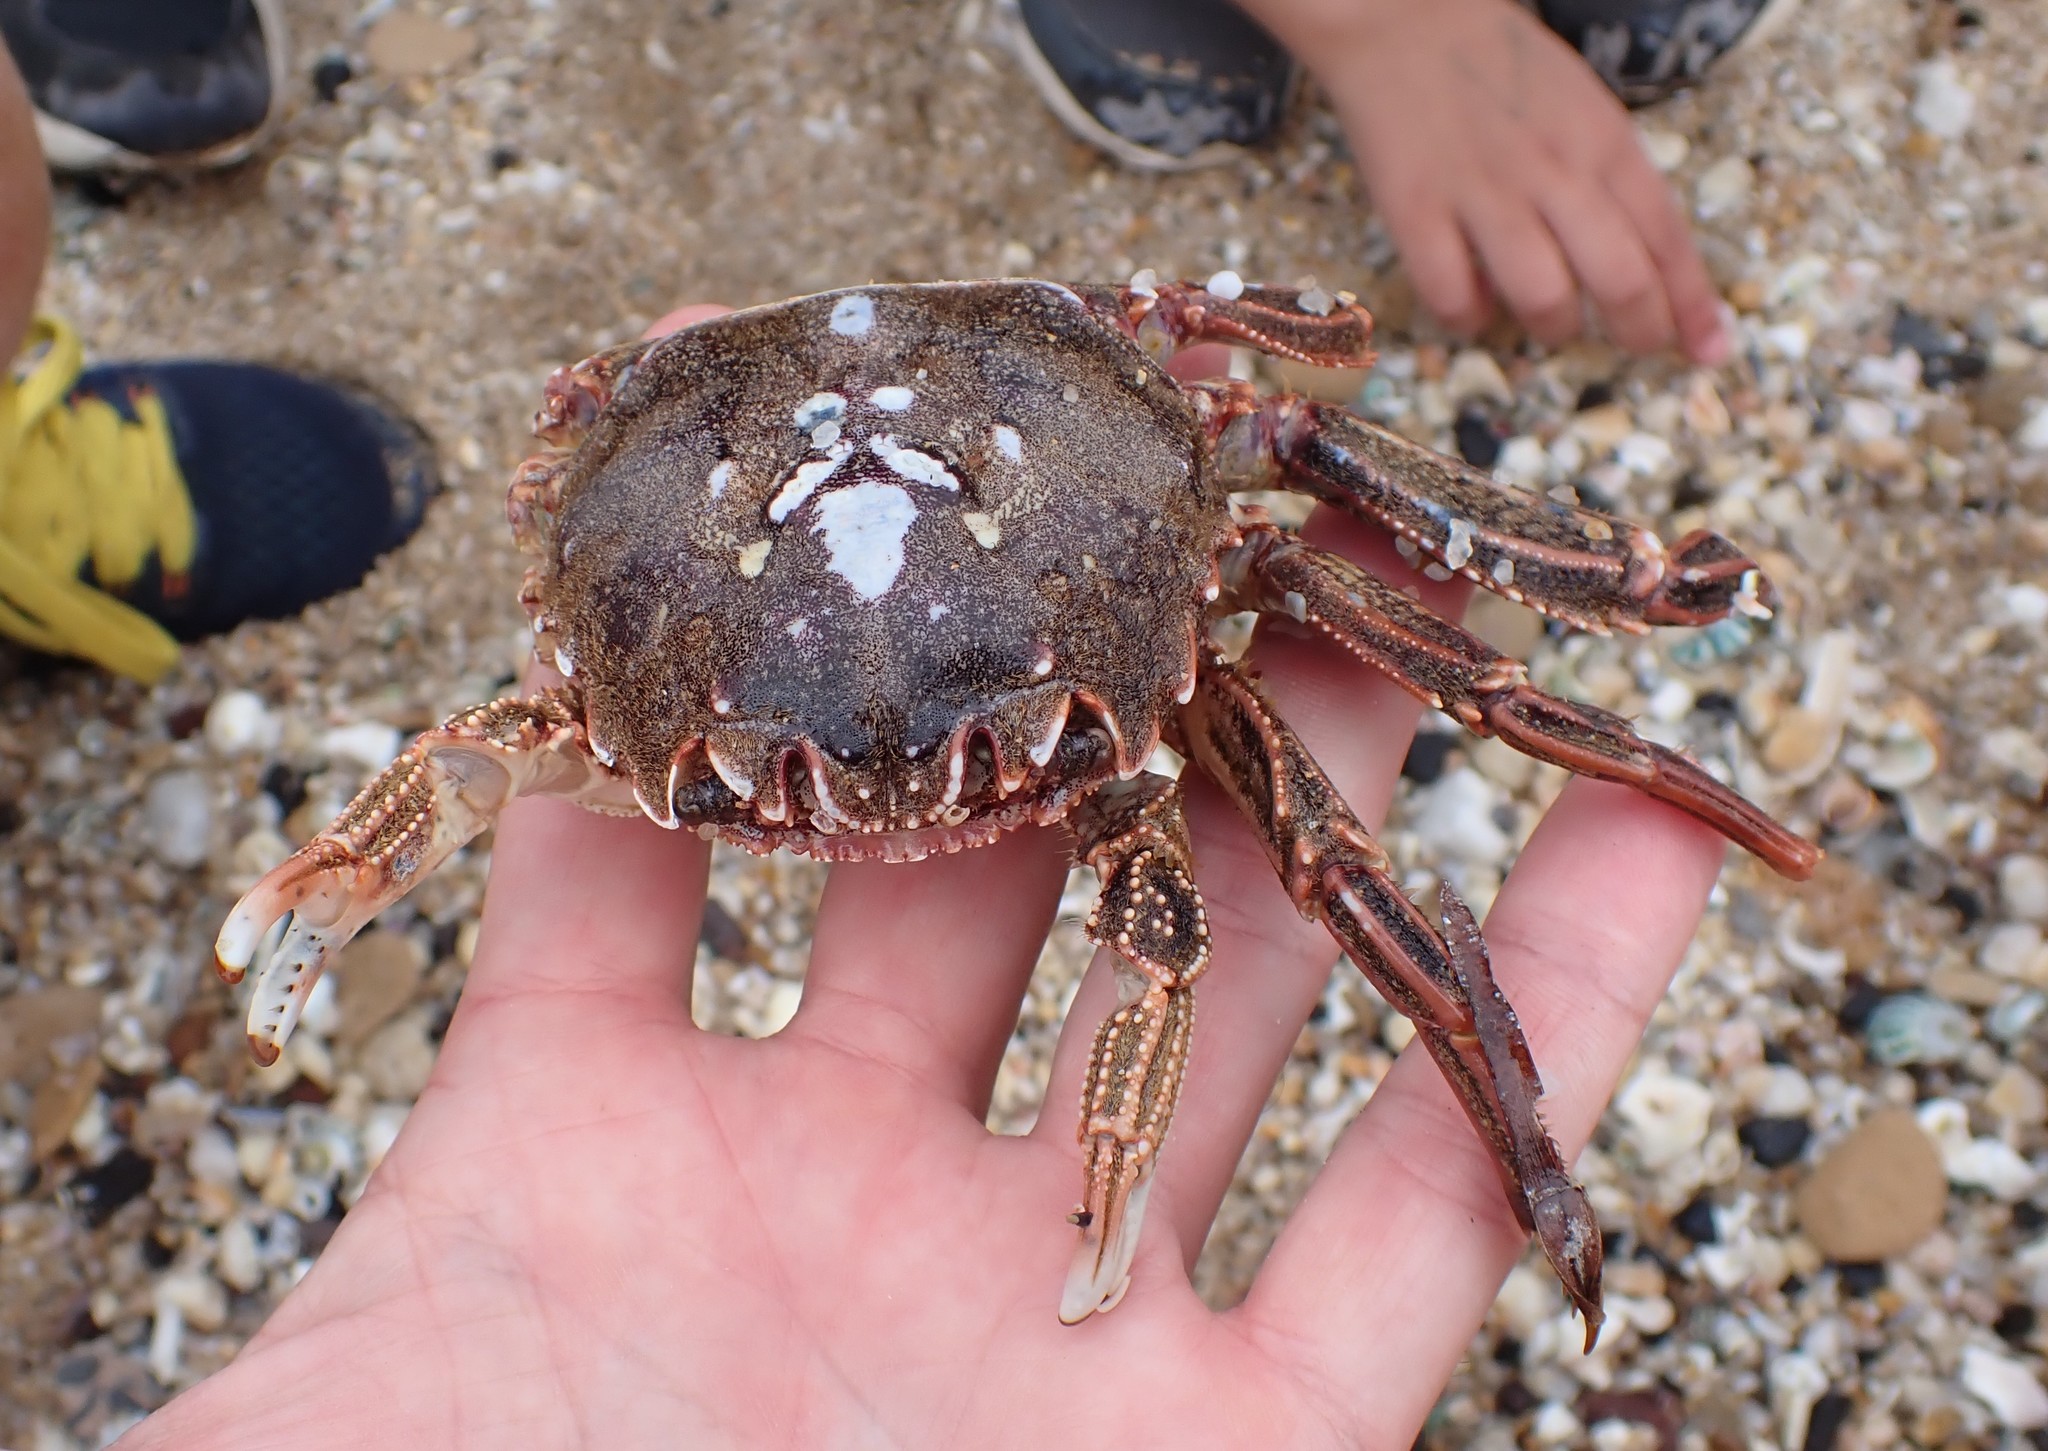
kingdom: Animalia
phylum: Arthropoda
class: Malacostraca
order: Decapoda
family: Plagusiidae
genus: Guinusia
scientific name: Guinusia chabrus
